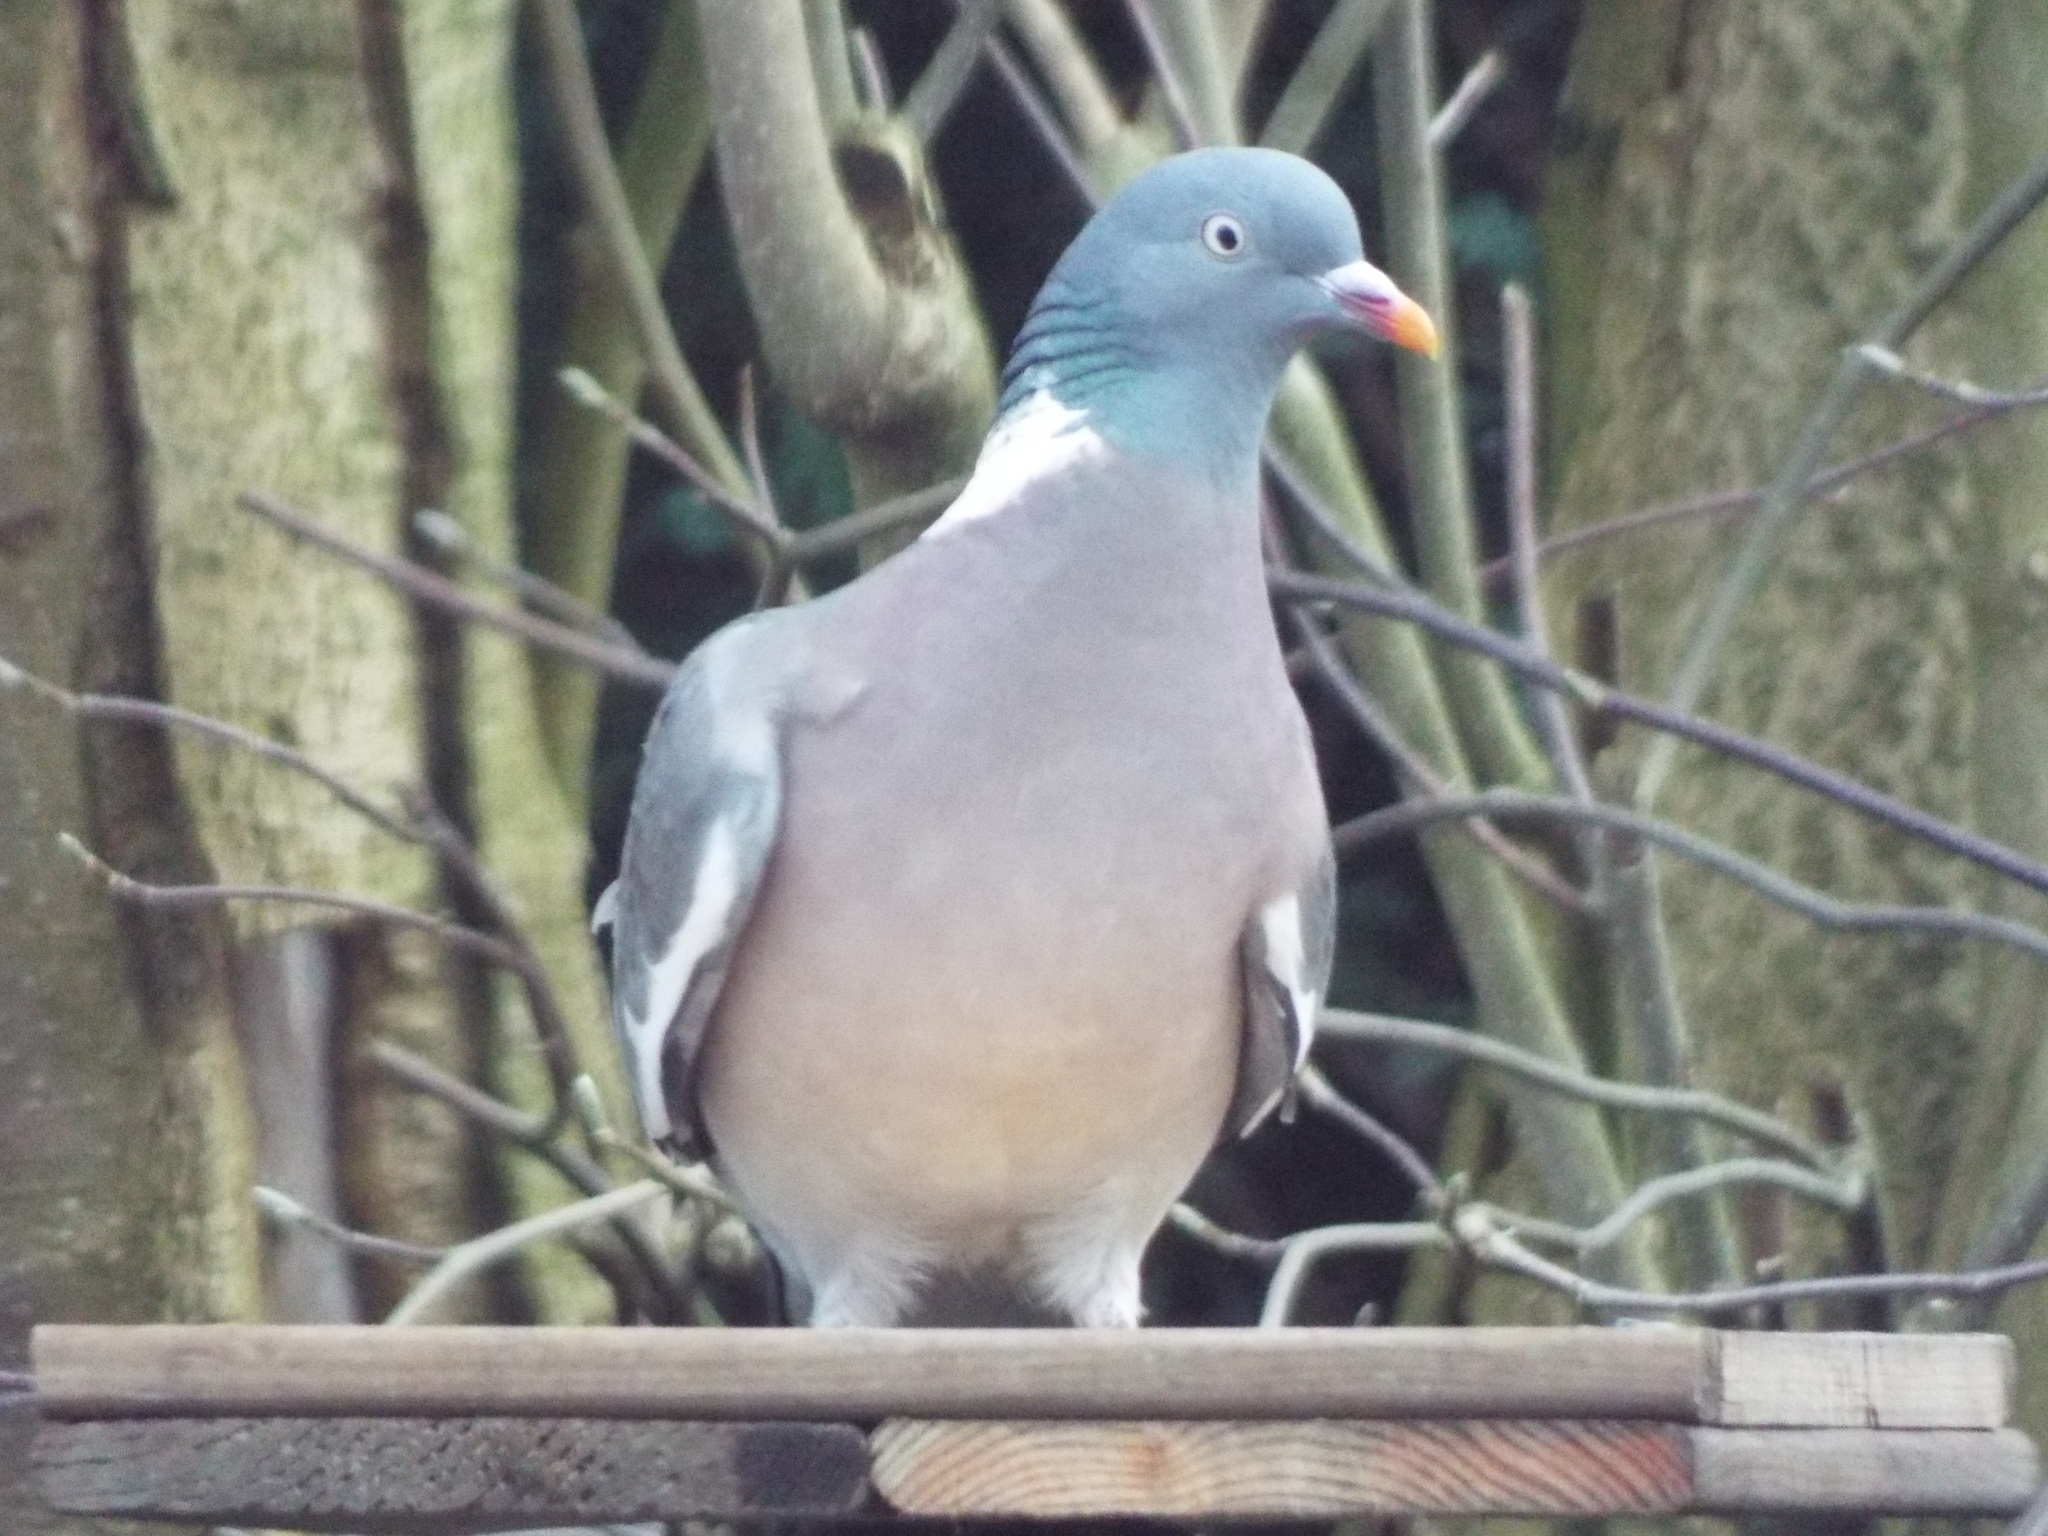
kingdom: Animalia
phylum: Chordata
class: Aves
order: Columbiformes
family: Columbidae
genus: Columba
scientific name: Columba palumbus
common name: Common wood pigeon
